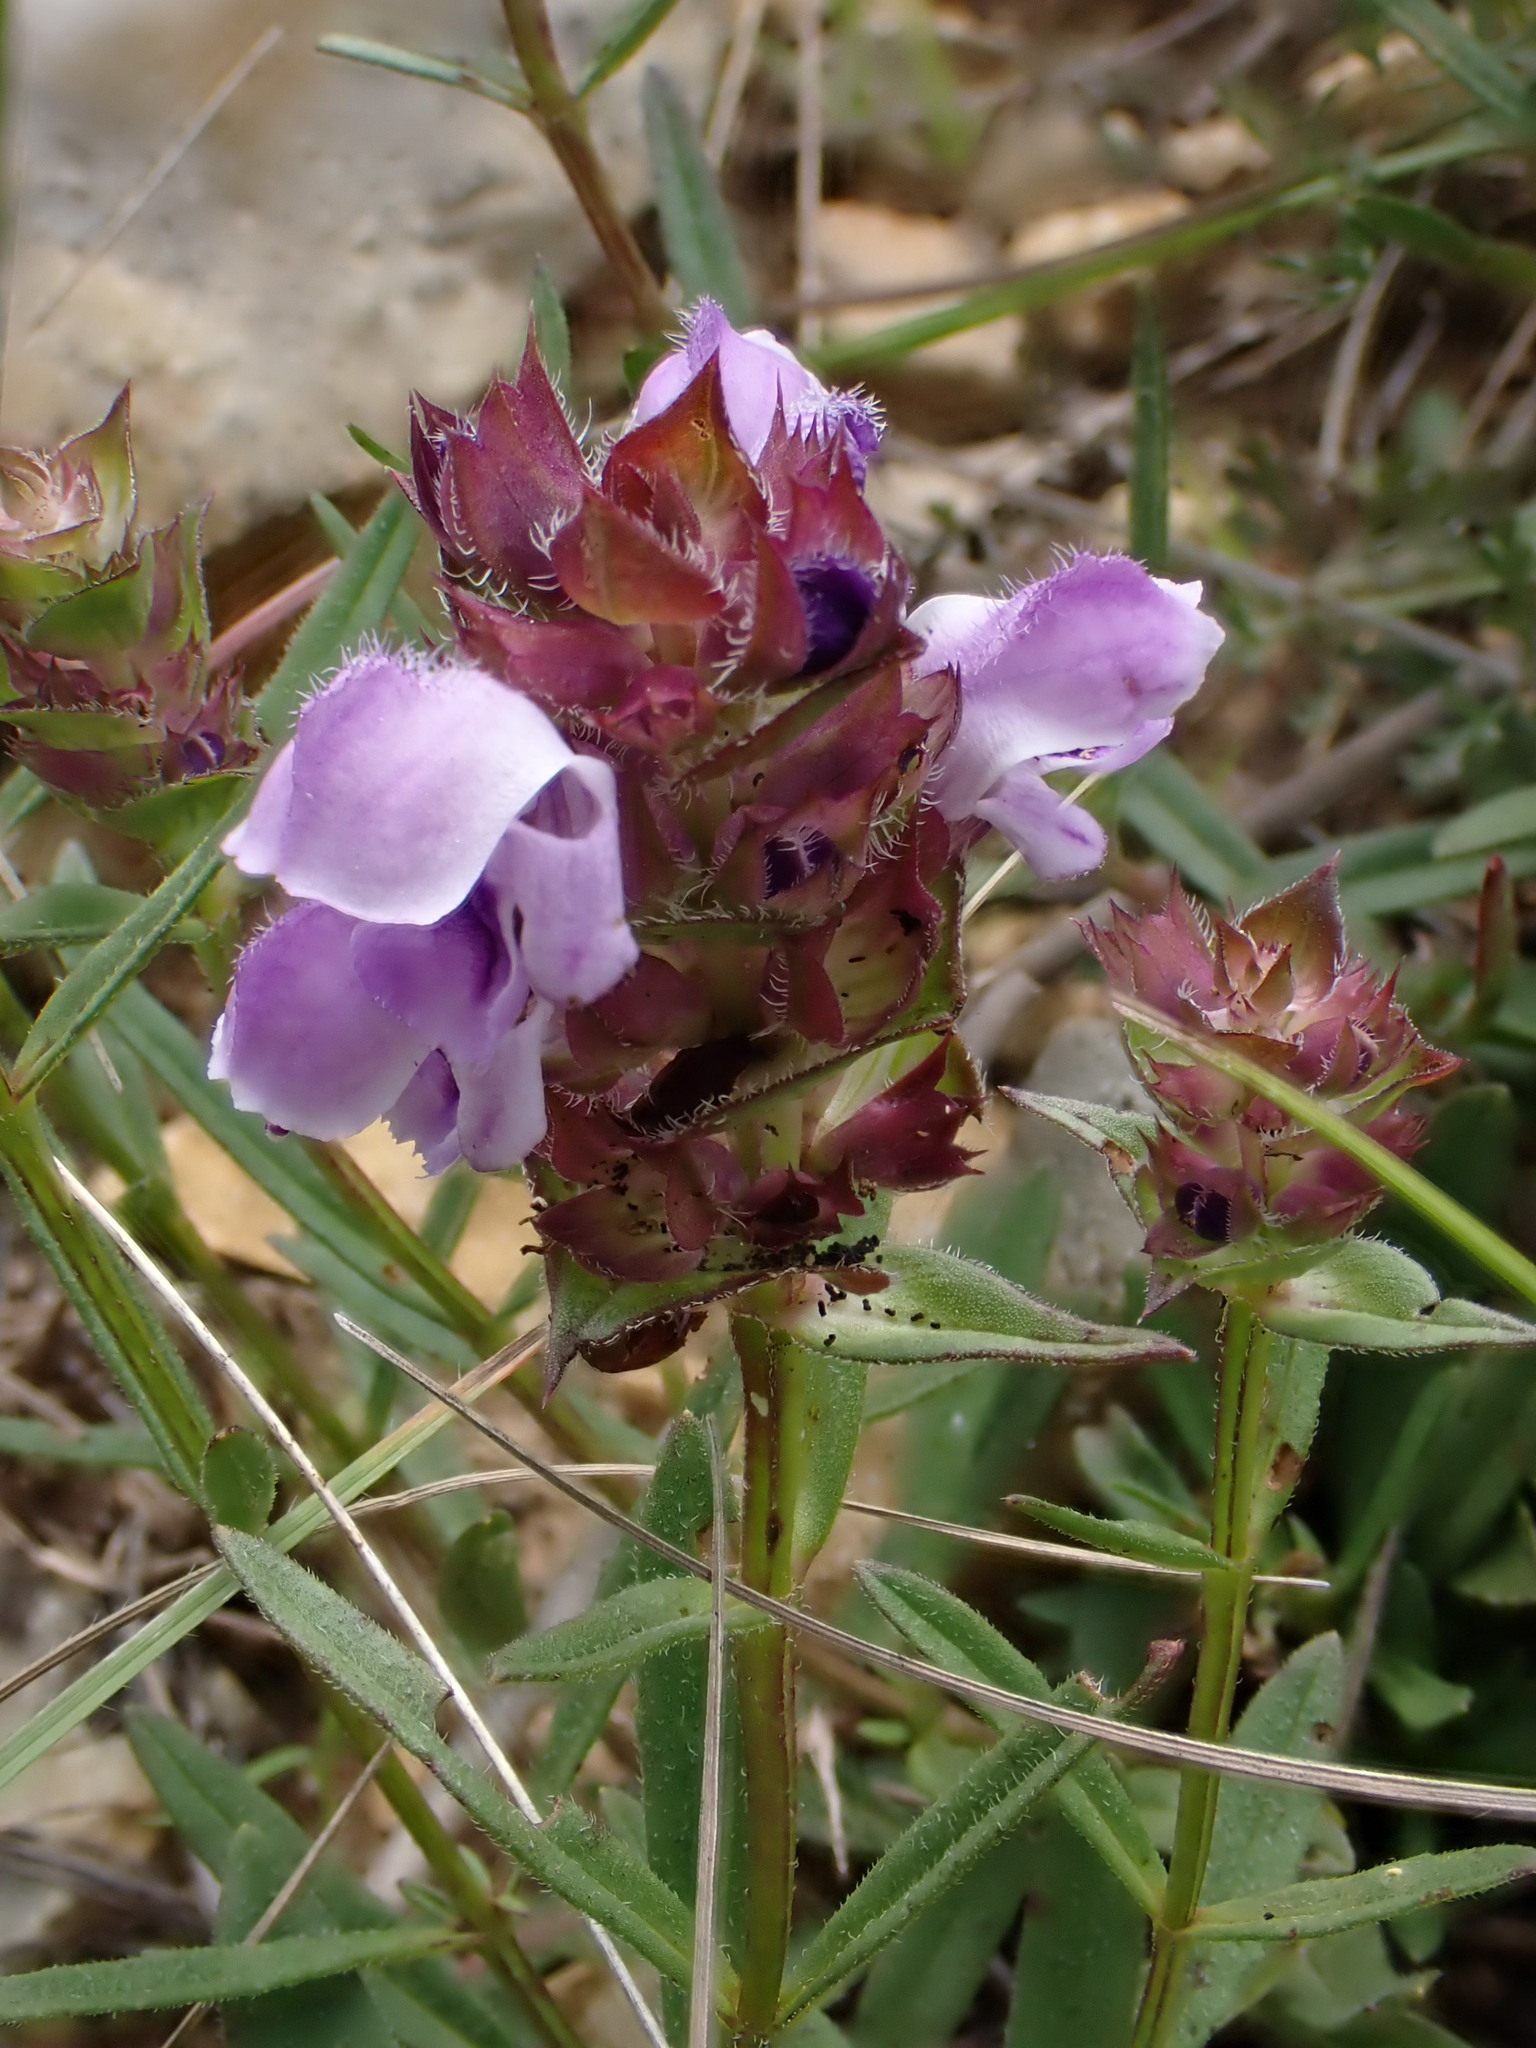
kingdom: Plantae
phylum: Tracheophyta
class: Magnoliopsida
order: Lamiales
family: Lamiaceae
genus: Prunella
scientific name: Prunella hyssopifolia
